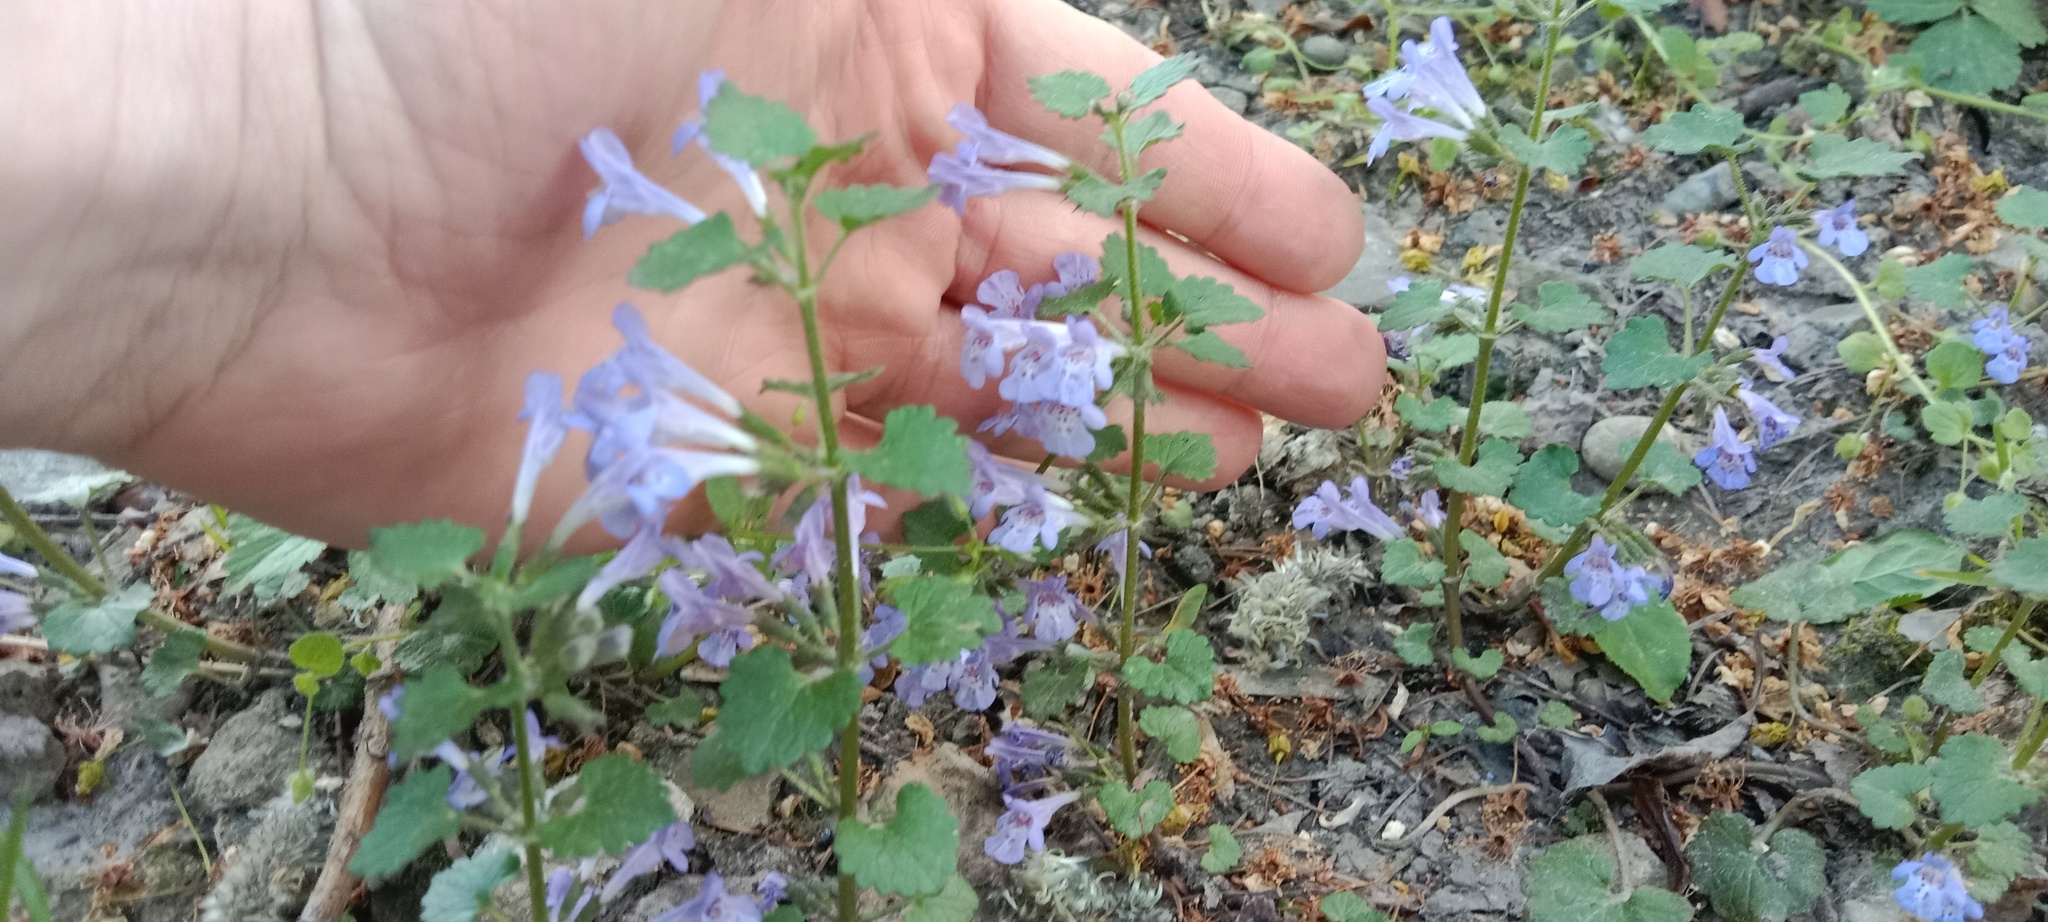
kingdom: Plantae
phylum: Tracheophyta
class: Magnoliopsida
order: Lamiales
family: Lamiaceae
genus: Glechoma
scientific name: Glechoma hederacea
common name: Ground ivy
